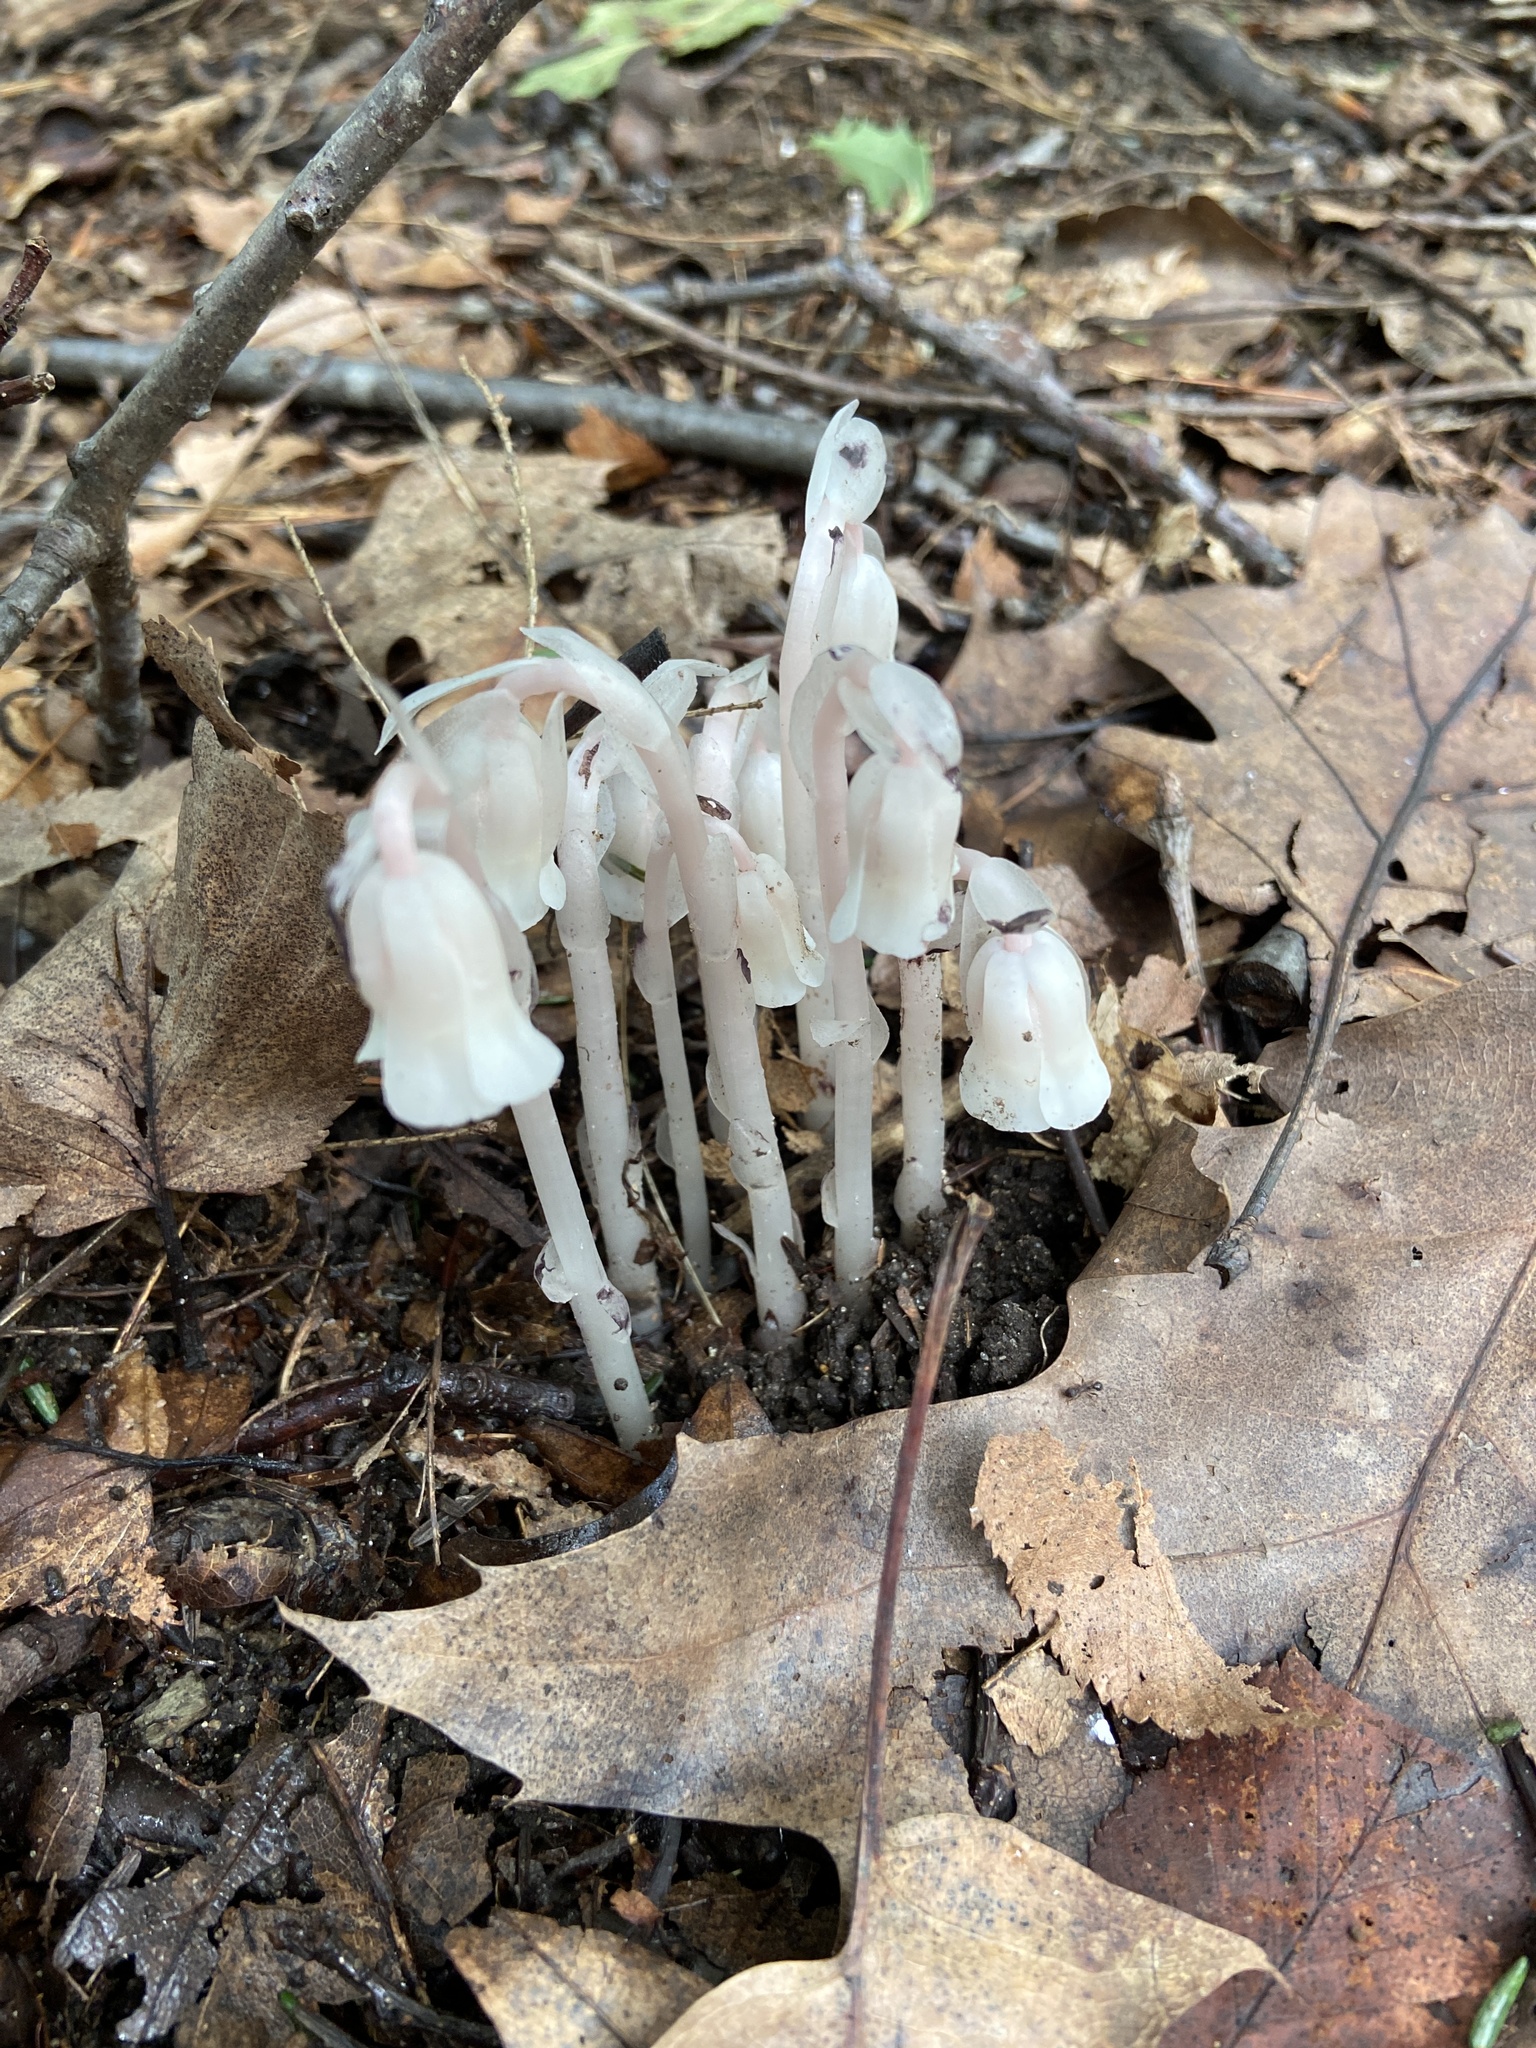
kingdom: Plantae
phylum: Tracheophyta
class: Magnoliopsida
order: Ericales
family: Ericaceae
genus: Monotropa
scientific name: Monotropa uniflora
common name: Convulsion root
